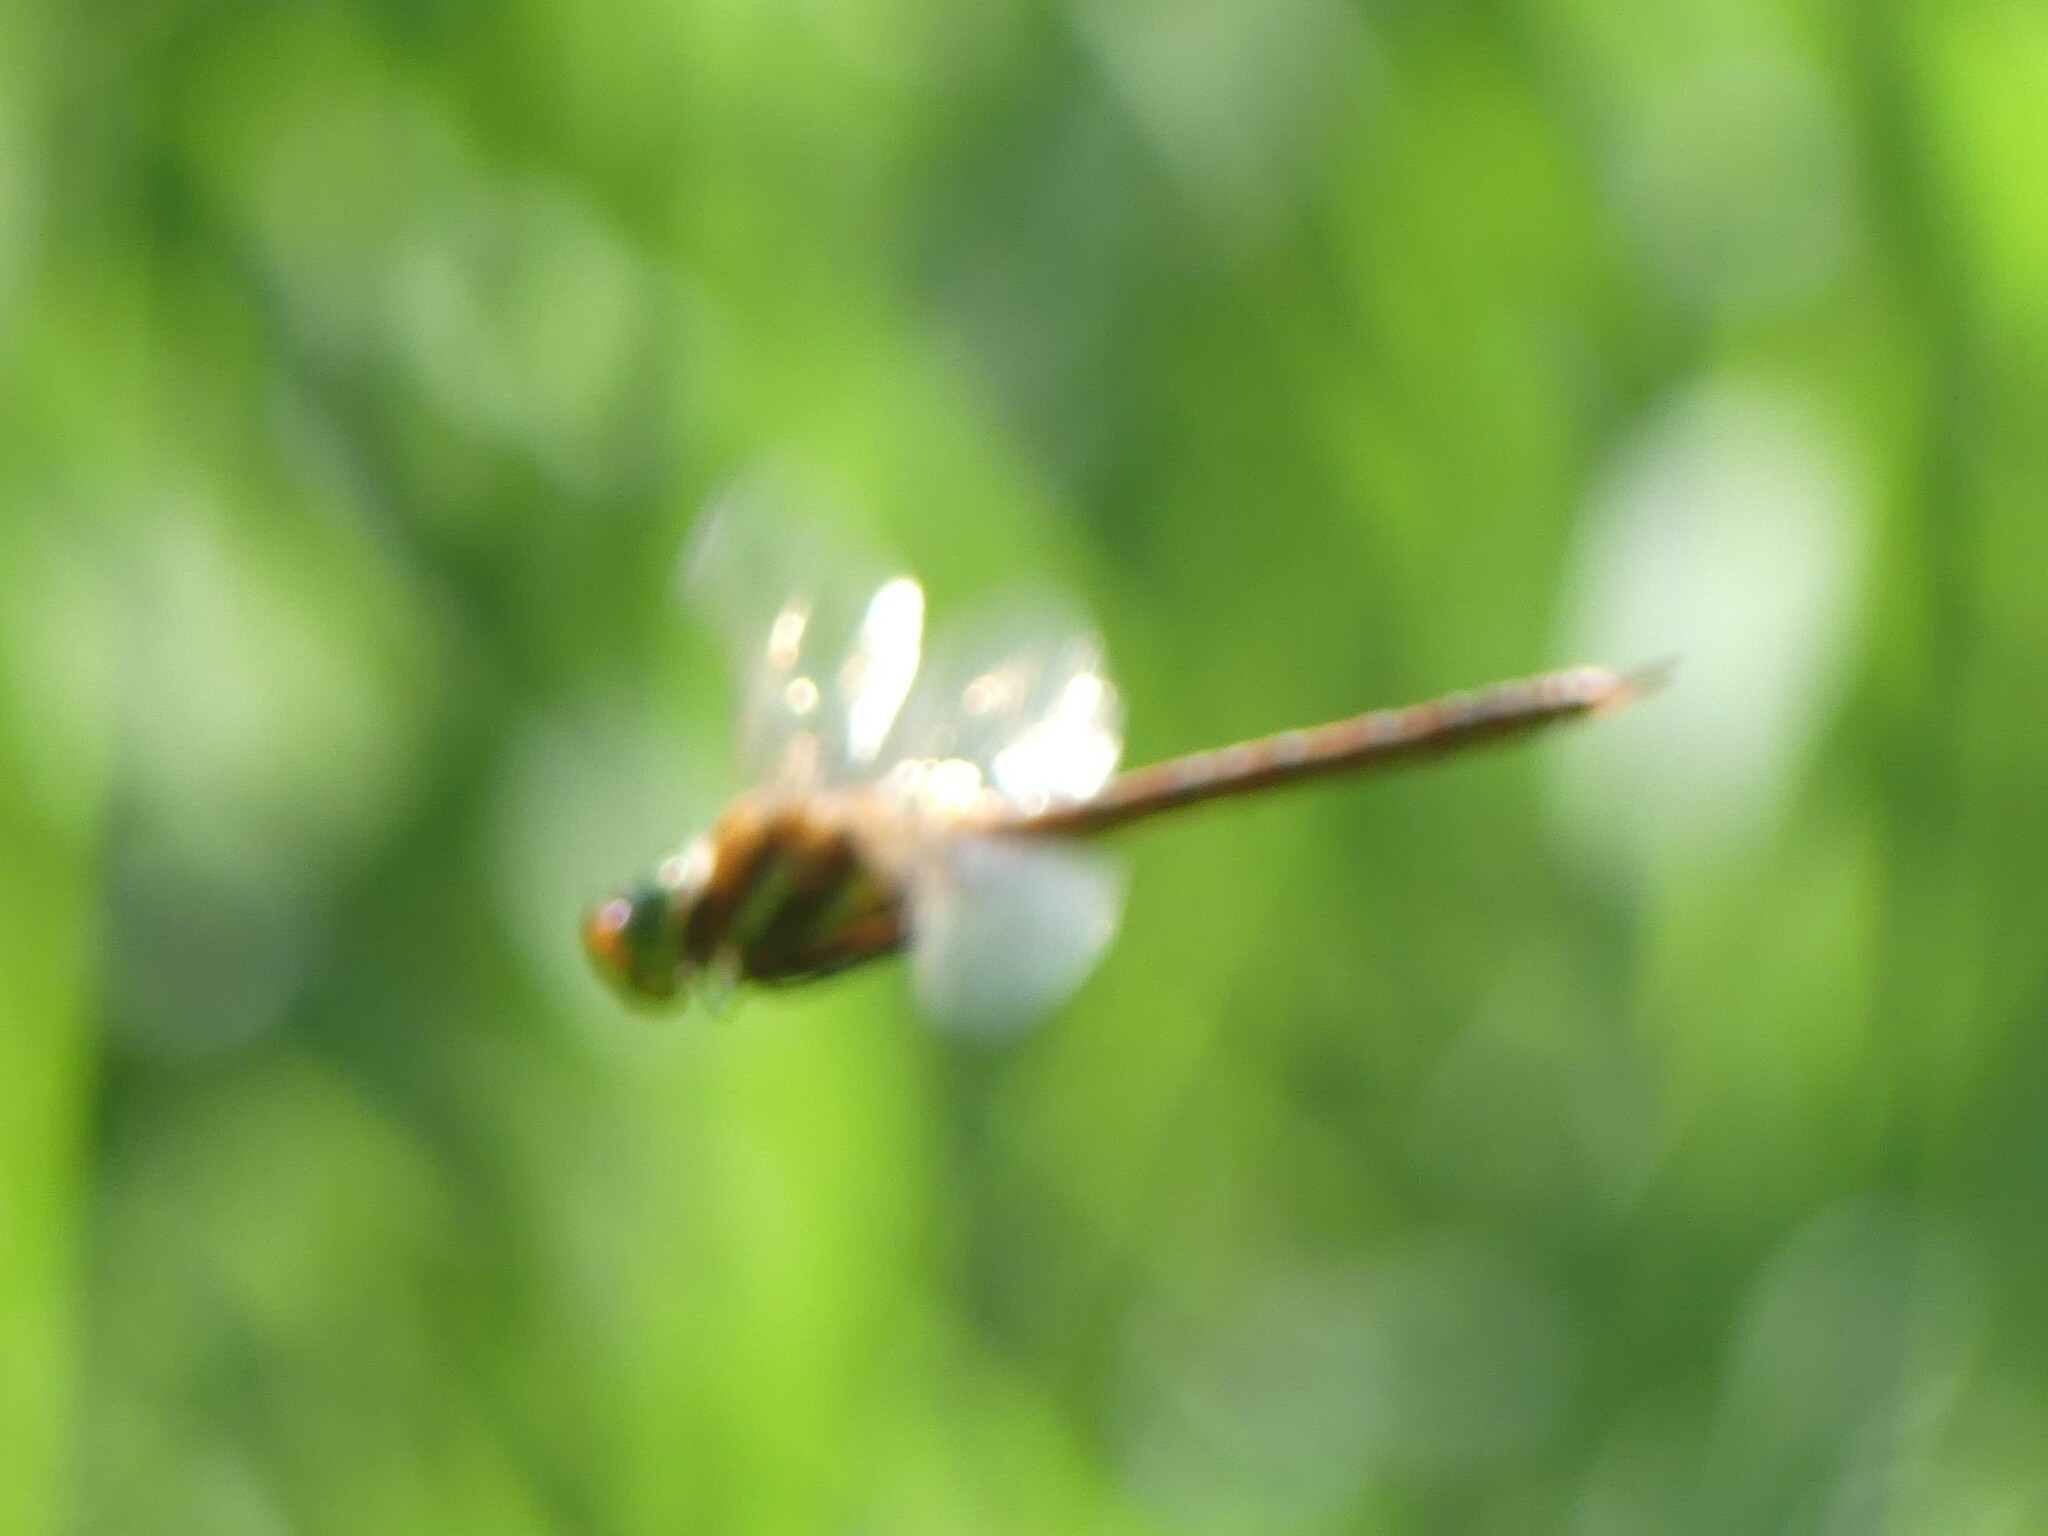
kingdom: Animalia
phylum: Arthropoda
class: Insecta
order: Odonata
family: Aeshnidae
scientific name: Aeshnidae
